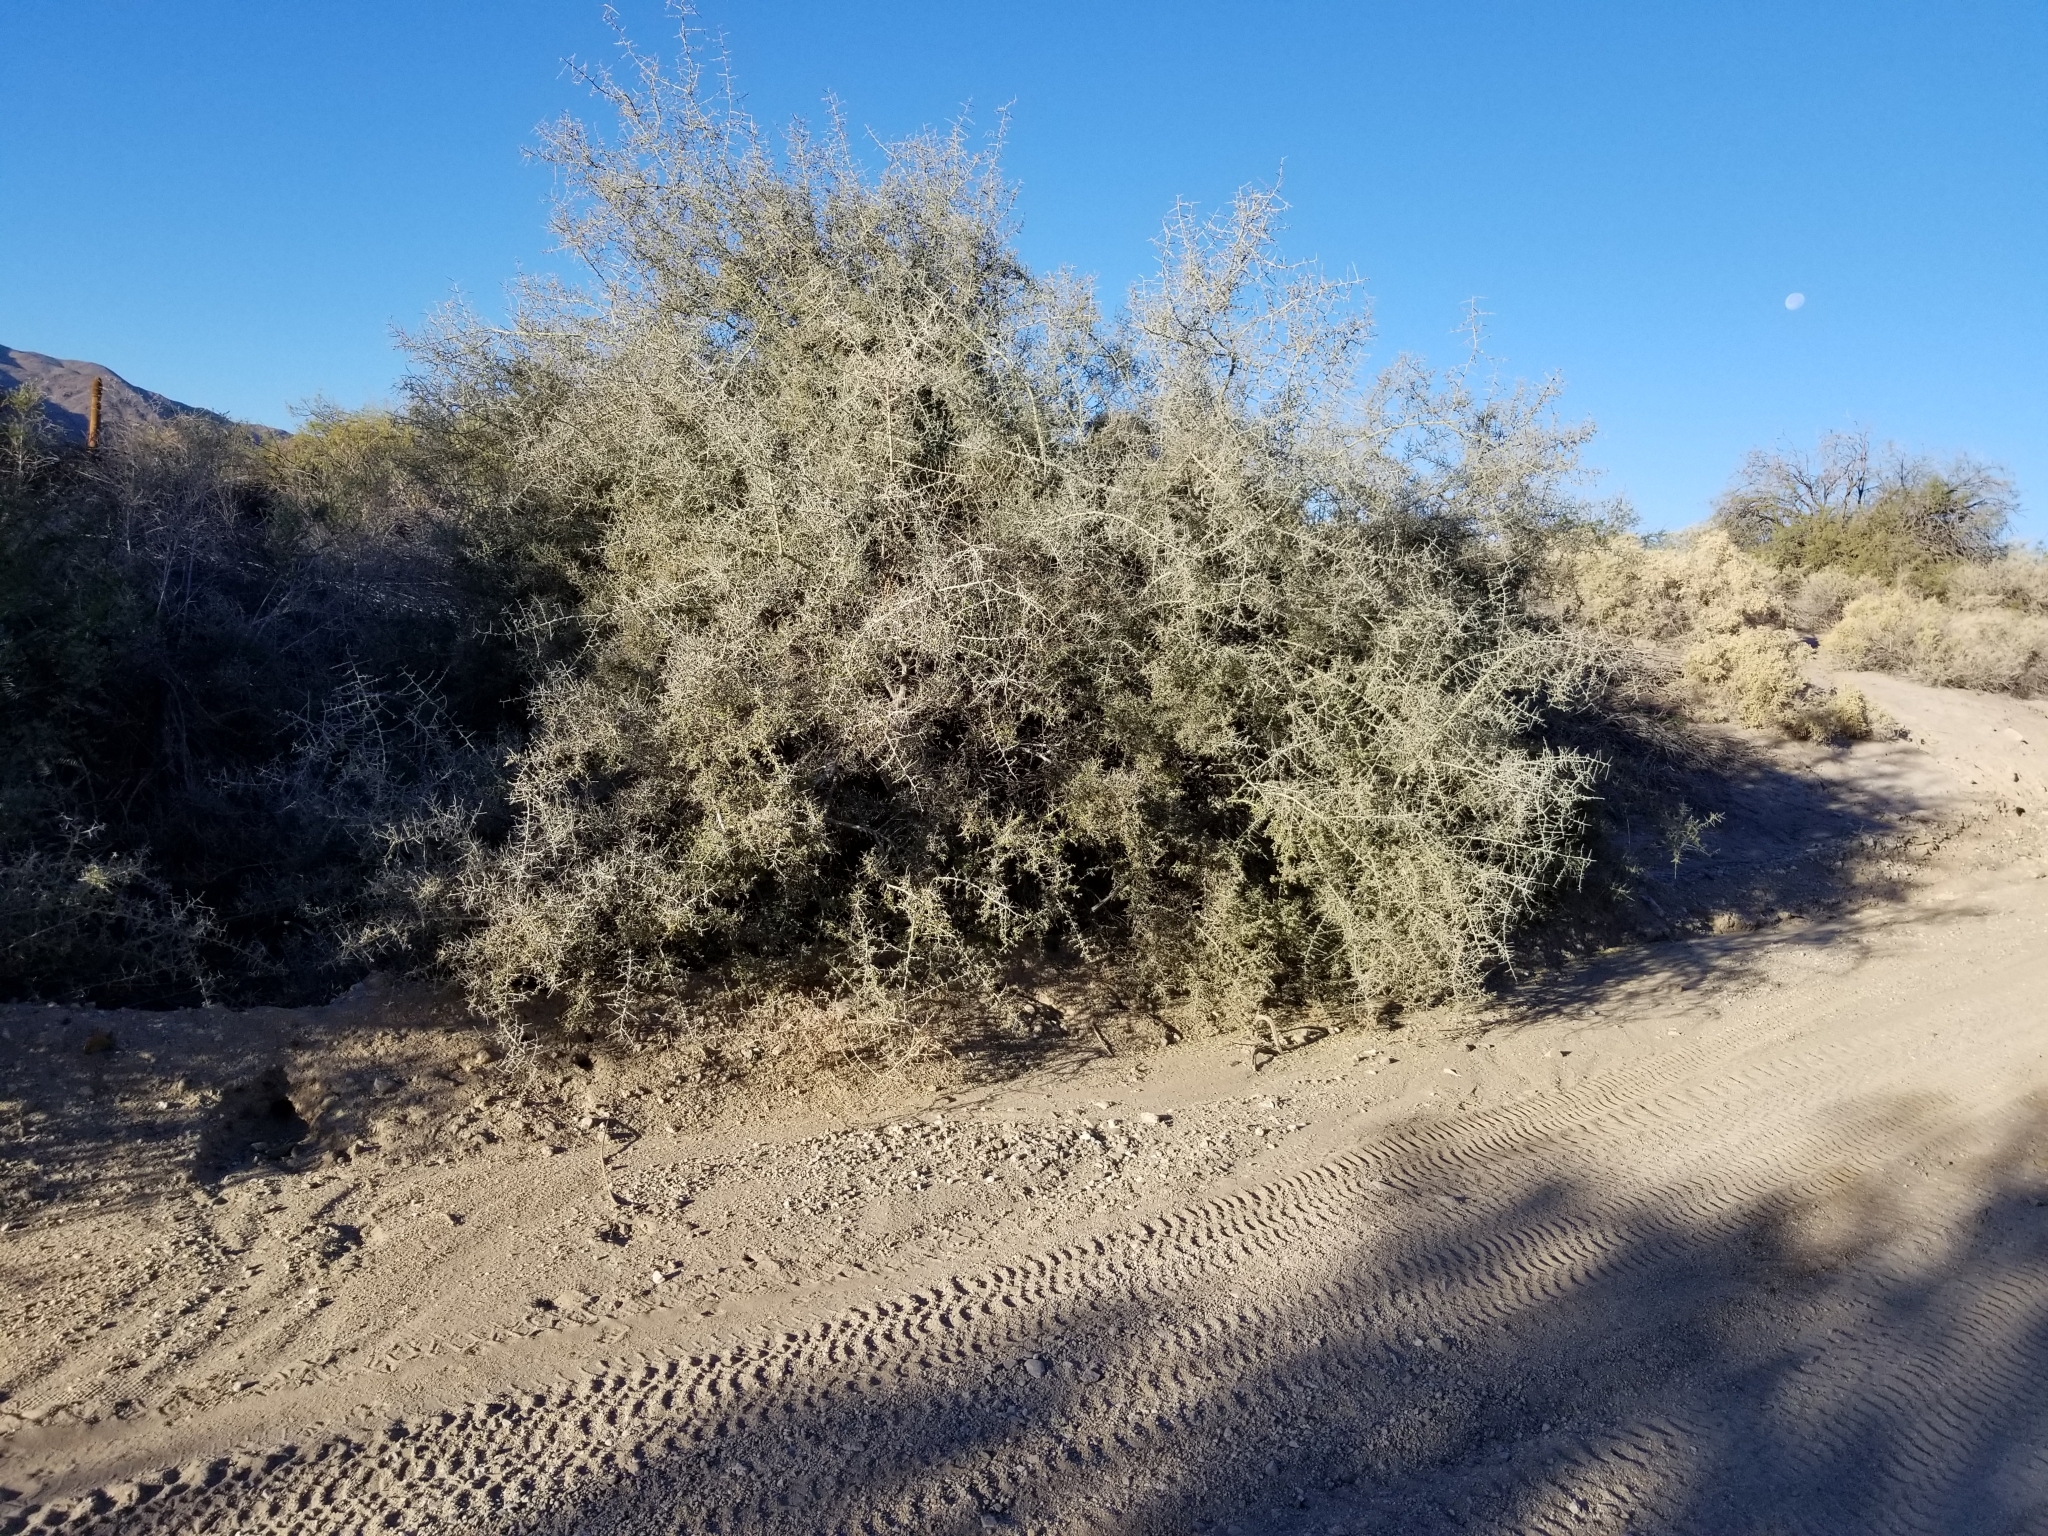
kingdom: Plantae
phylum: Tracheophyta
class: Magnoliopsida
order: Rosales
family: Rhamnaceae
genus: Sarcomphalus
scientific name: Sarcomphalus obtusifolius
